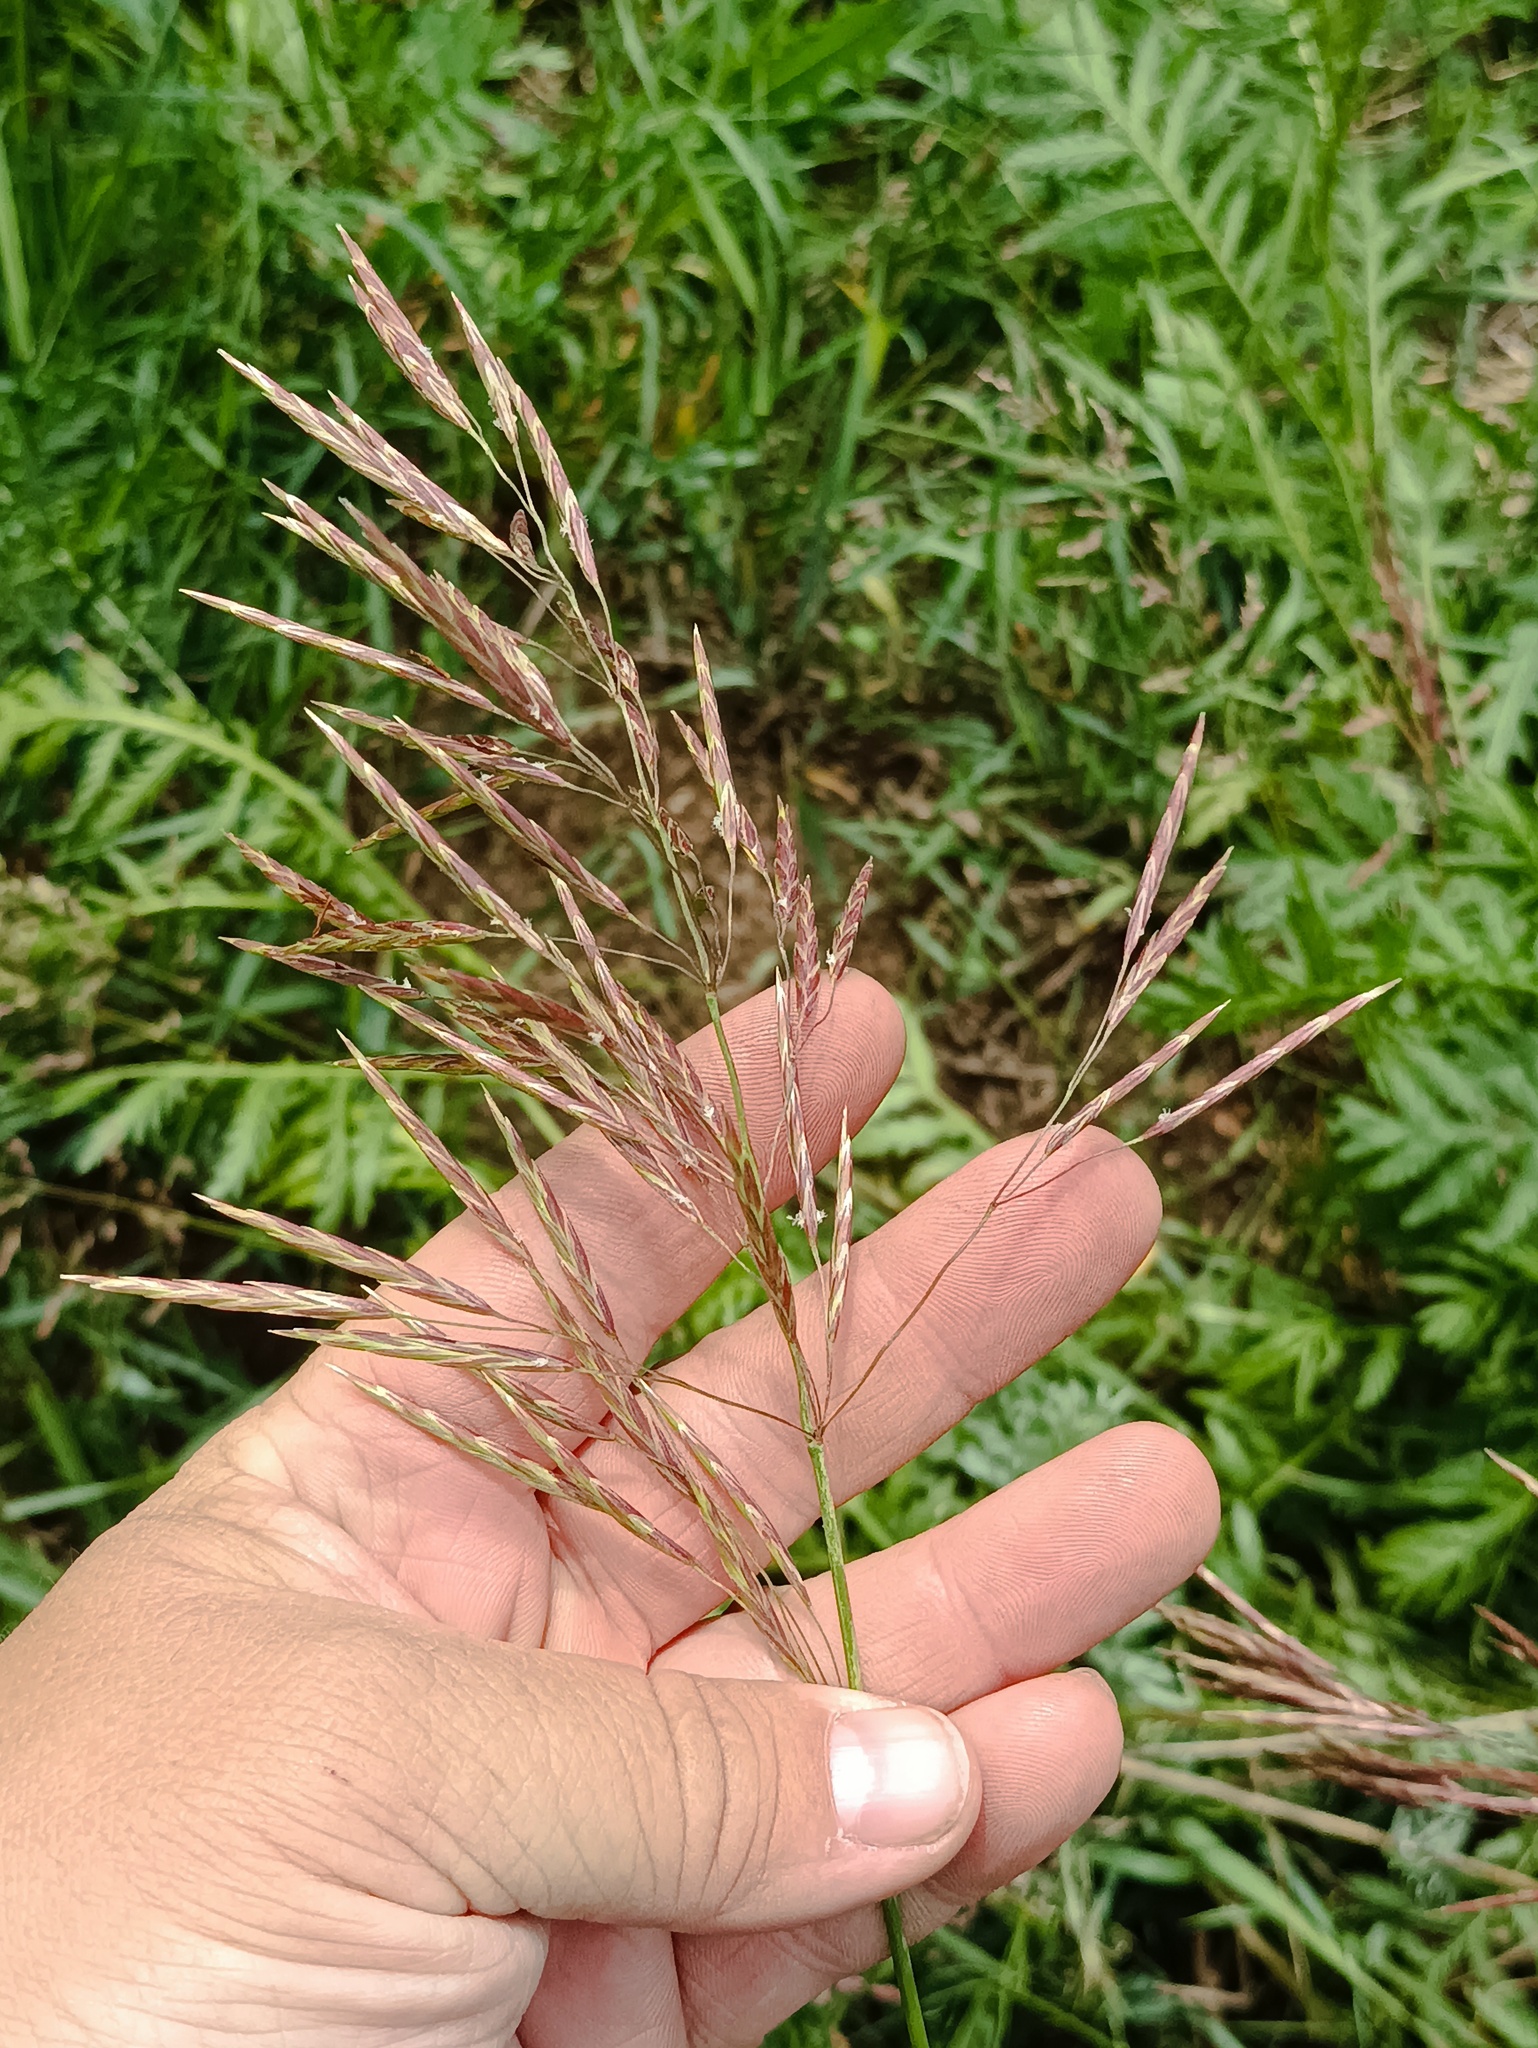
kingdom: Plantae
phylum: Tracheophyta
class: Liliopsida
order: Poales
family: Poaceae
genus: Bromus
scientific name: Bromus inermis
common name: Smooth brome
